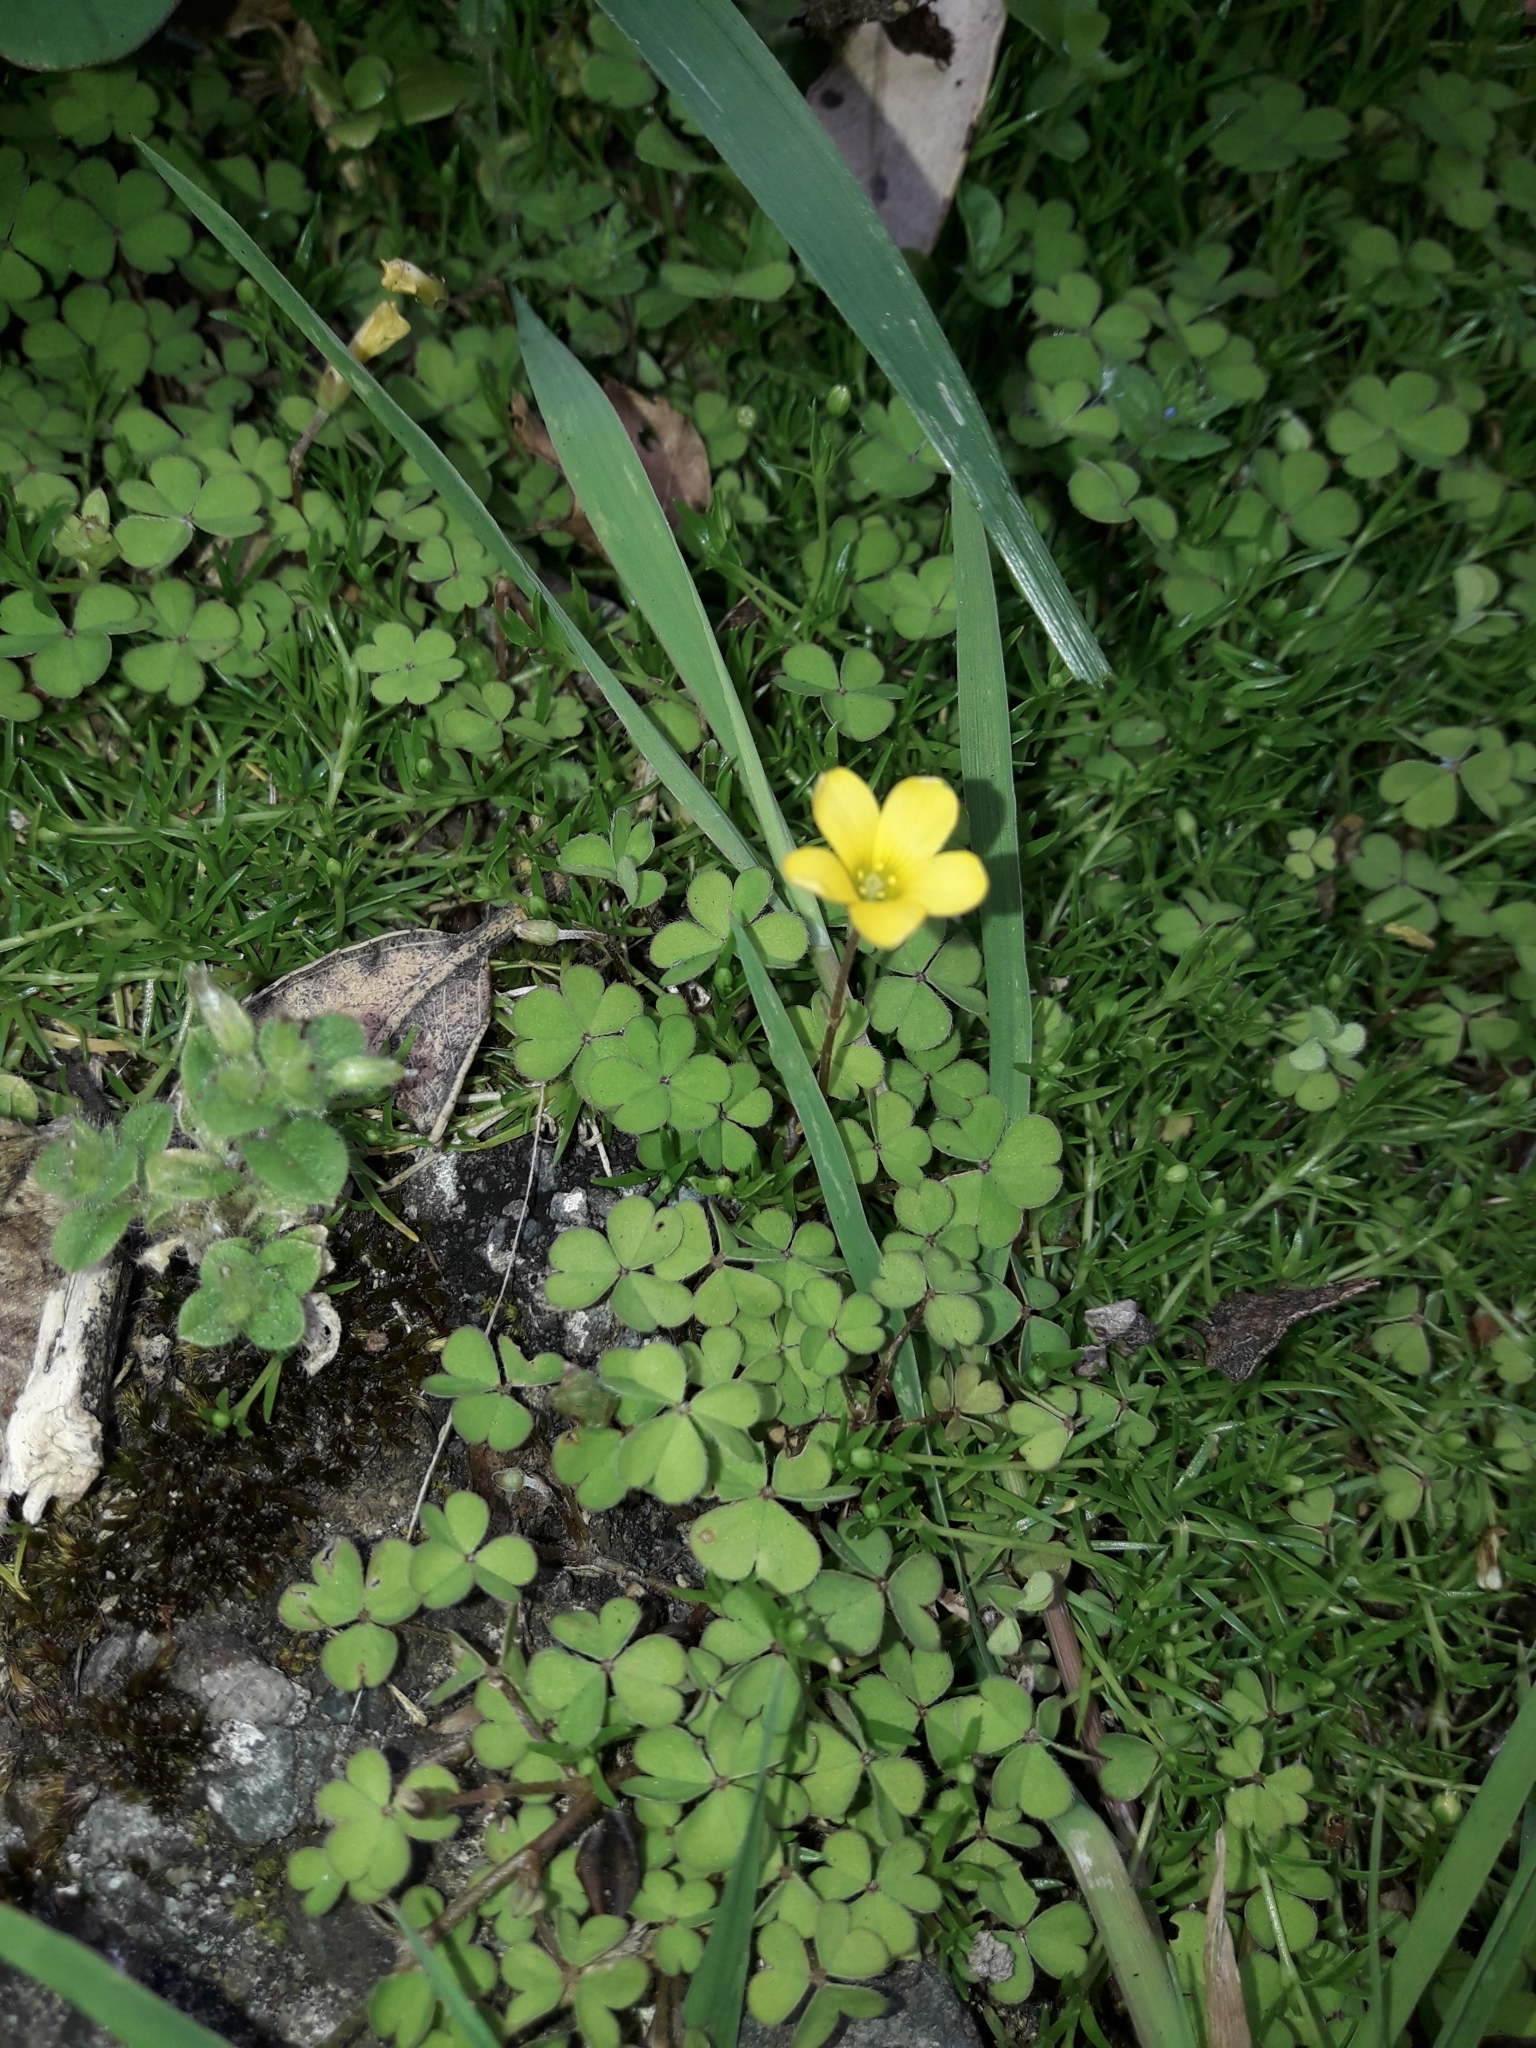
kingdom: Plantae
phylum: Tracheophyta
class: Magnoliopsida
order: Oxalidales
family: Oxalidaceae
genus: Oxalis
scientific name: Oxalis exilis
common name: Least yellow-sorrel
